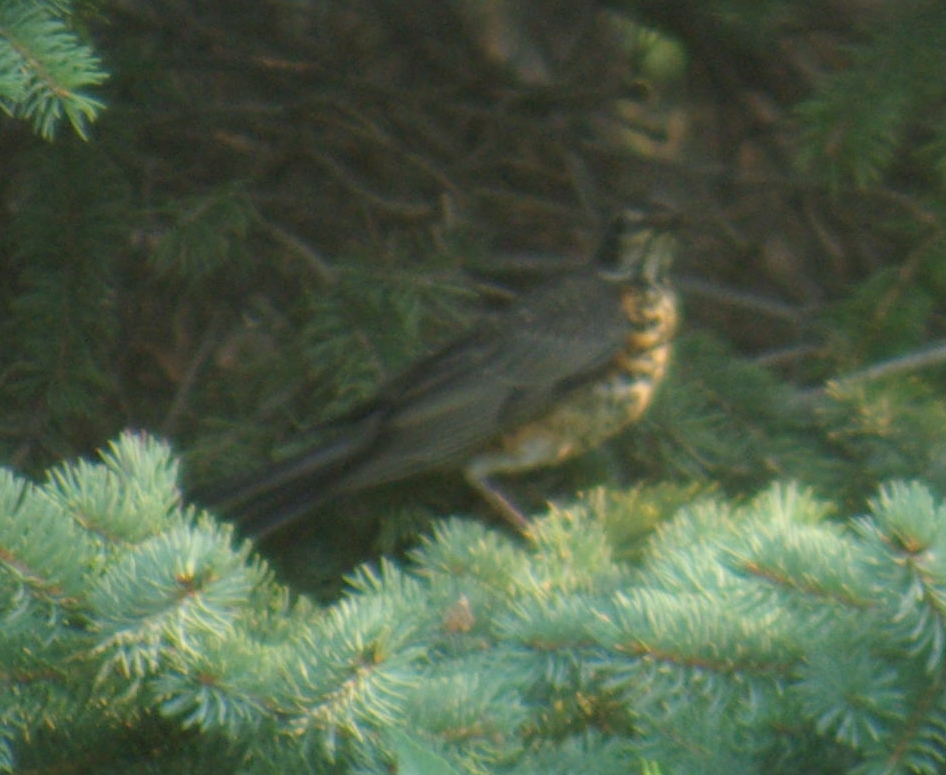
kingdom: Animalia
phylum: Chordata
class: Aves
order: Passeriformes
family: Turdidae
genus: Turdus
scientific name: Turdus migratorius
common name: American robin
